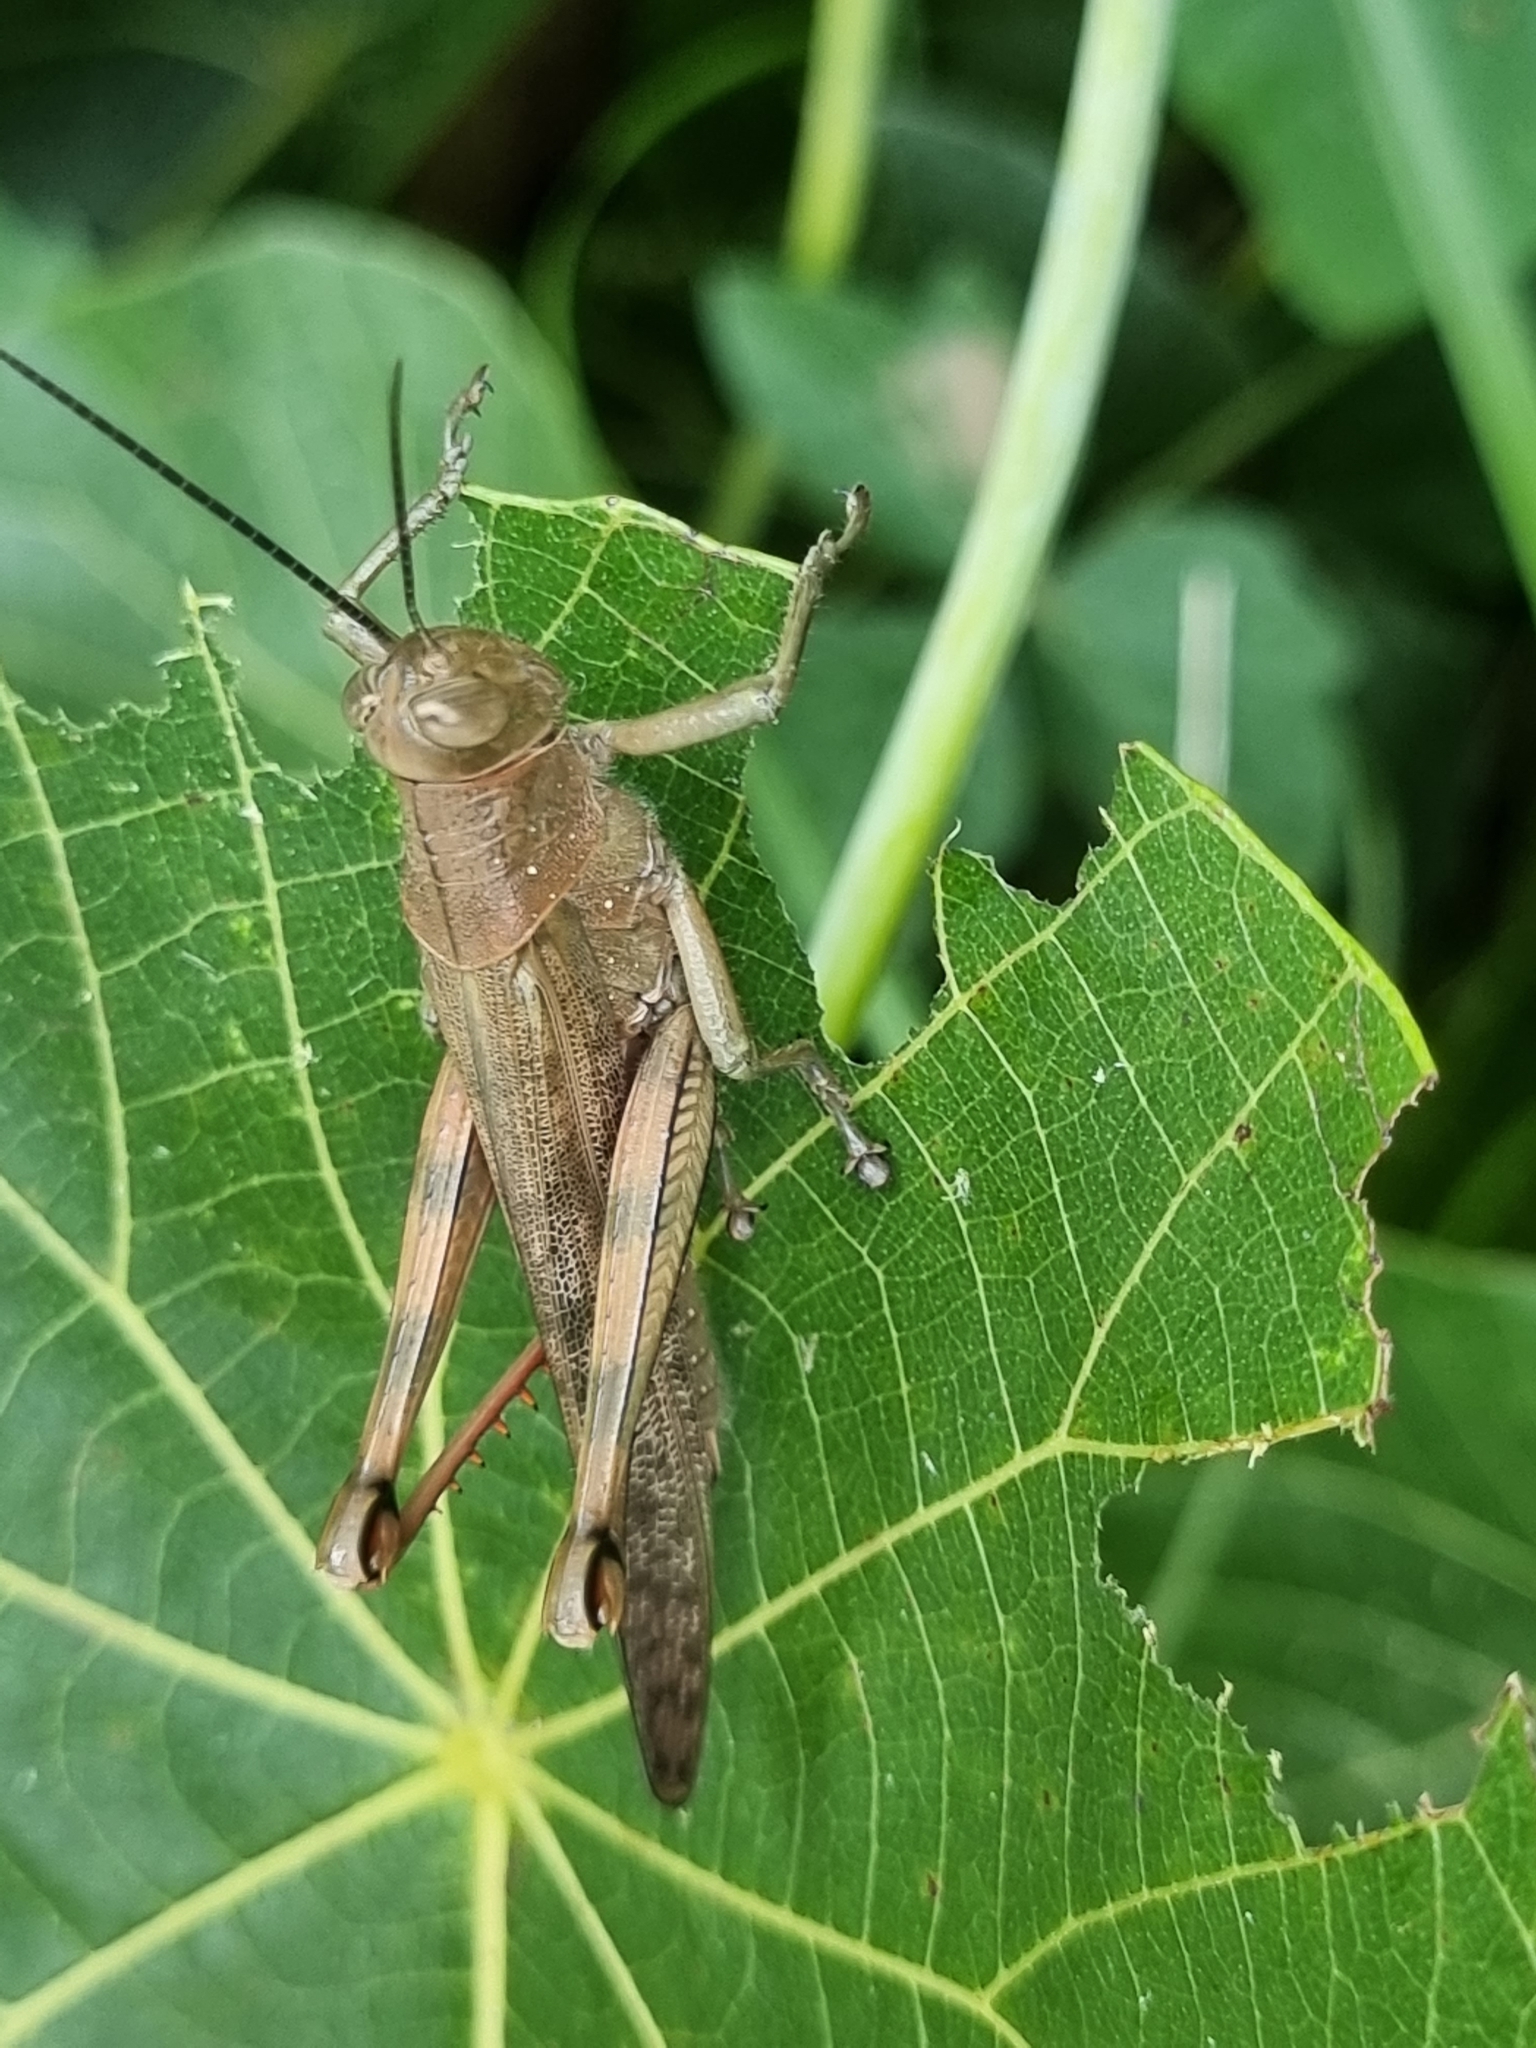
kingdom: Animalia
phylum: Arthropoda
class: Insecta
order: Orthoptera
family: Acrididae
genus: Valanga
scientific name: Valanga irregularis
